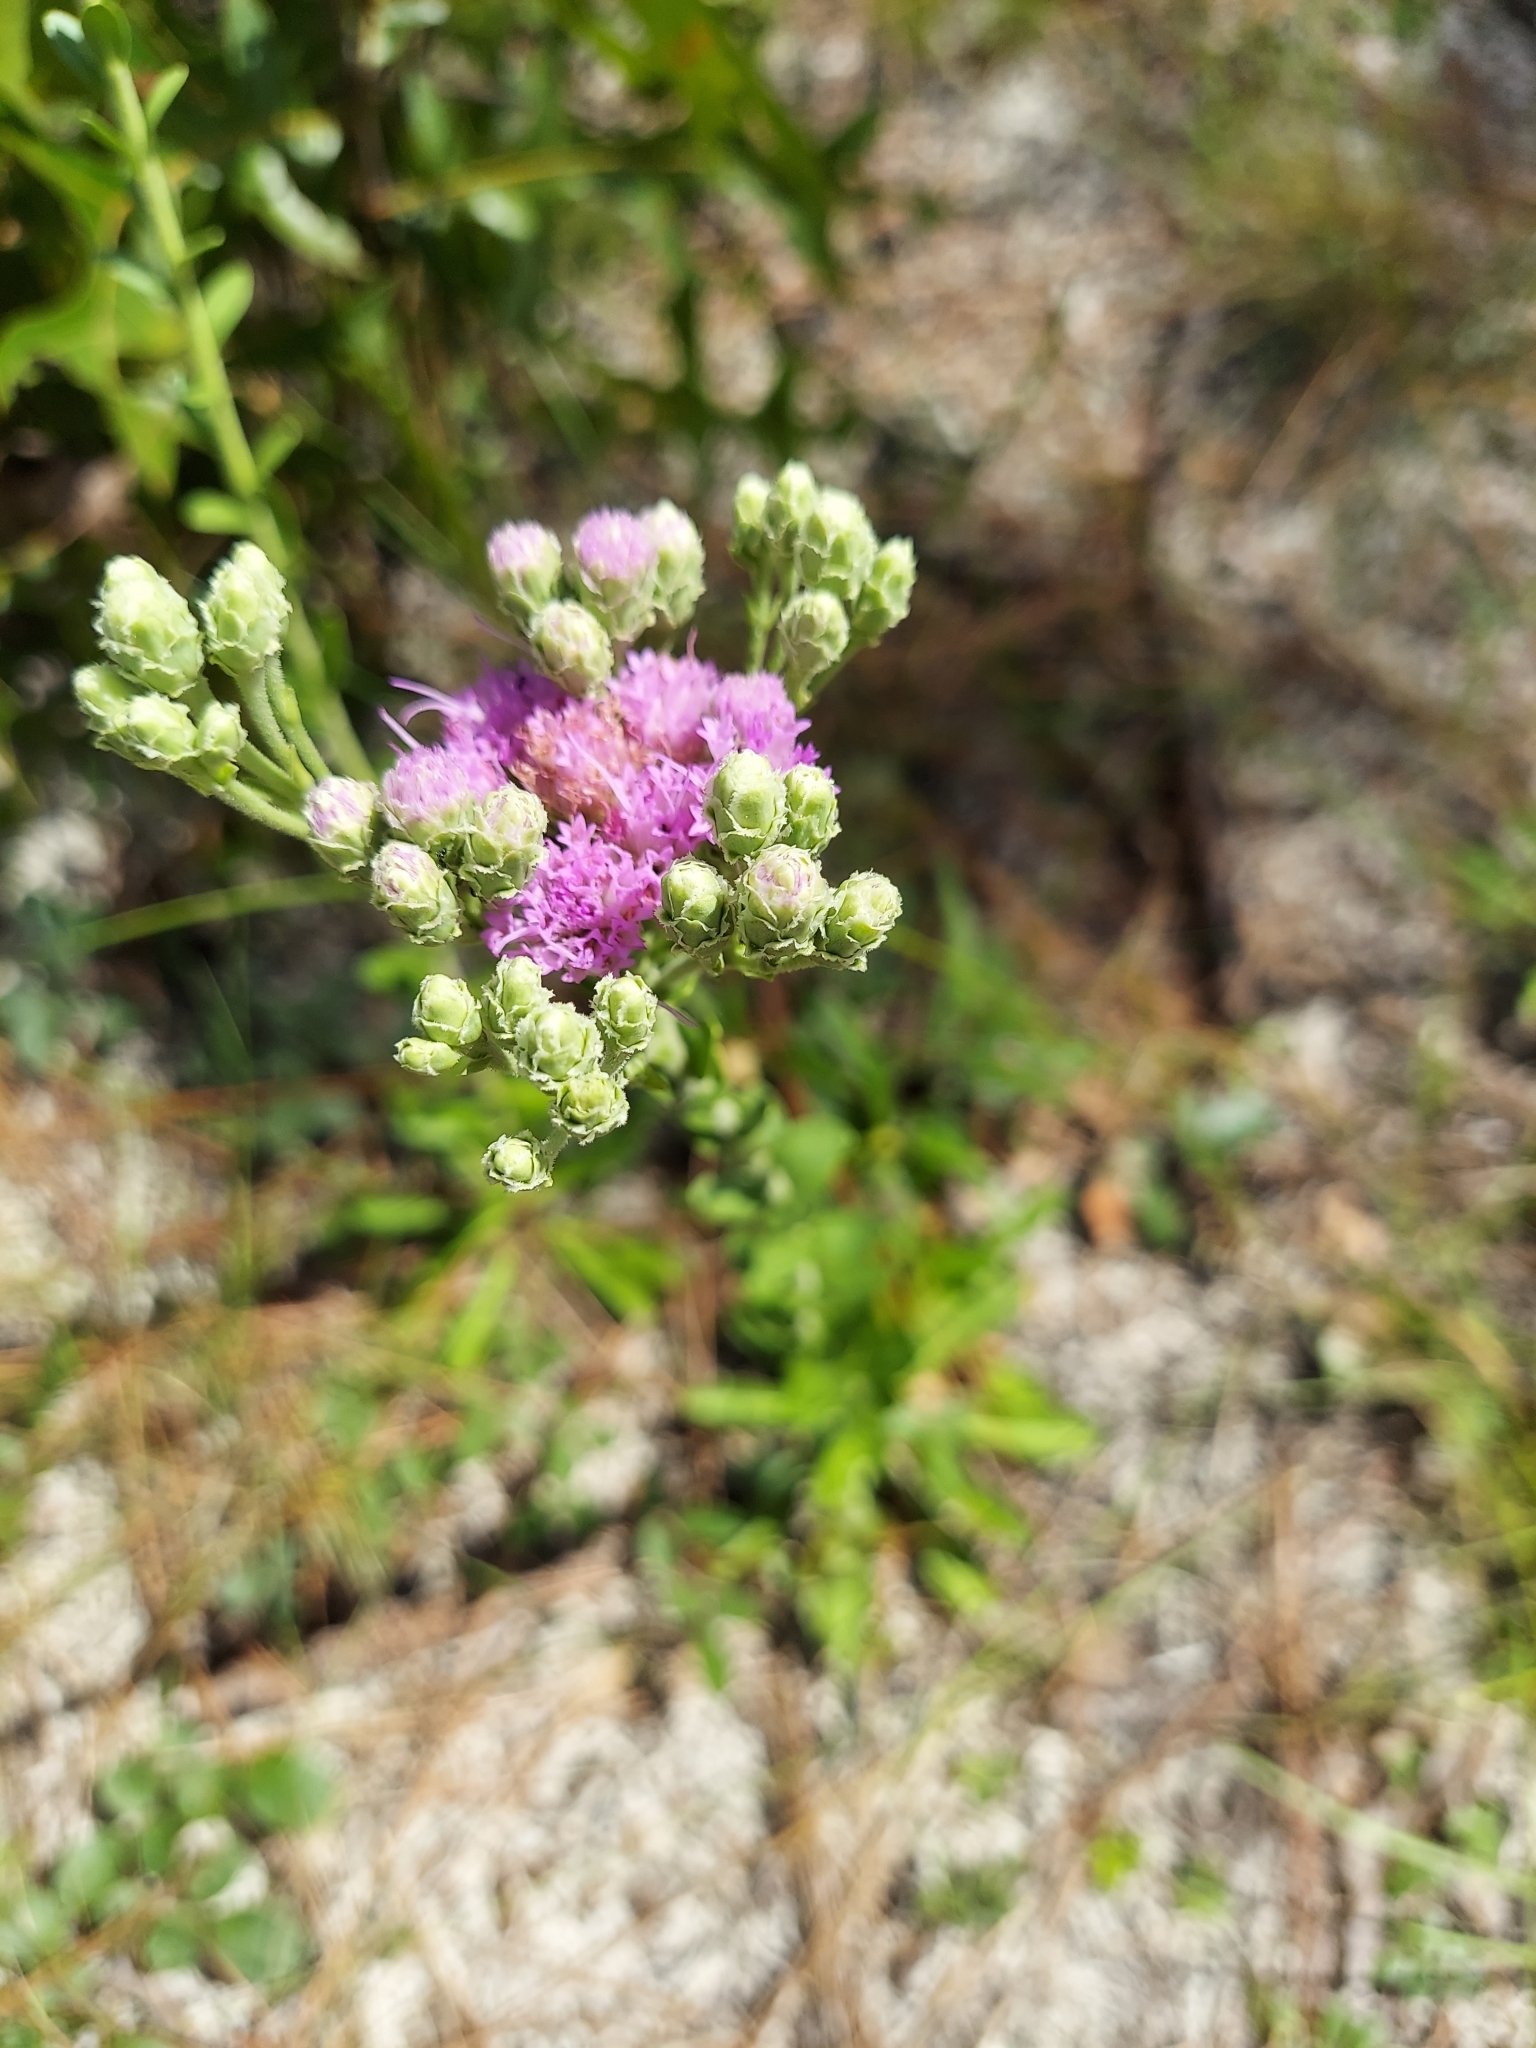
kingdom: Plantae
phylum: Tracheophyta
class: Magnoliopsida
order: Asterales
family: Asteraceae
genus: Carphephorus
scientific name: Carphephorus corymbosus
